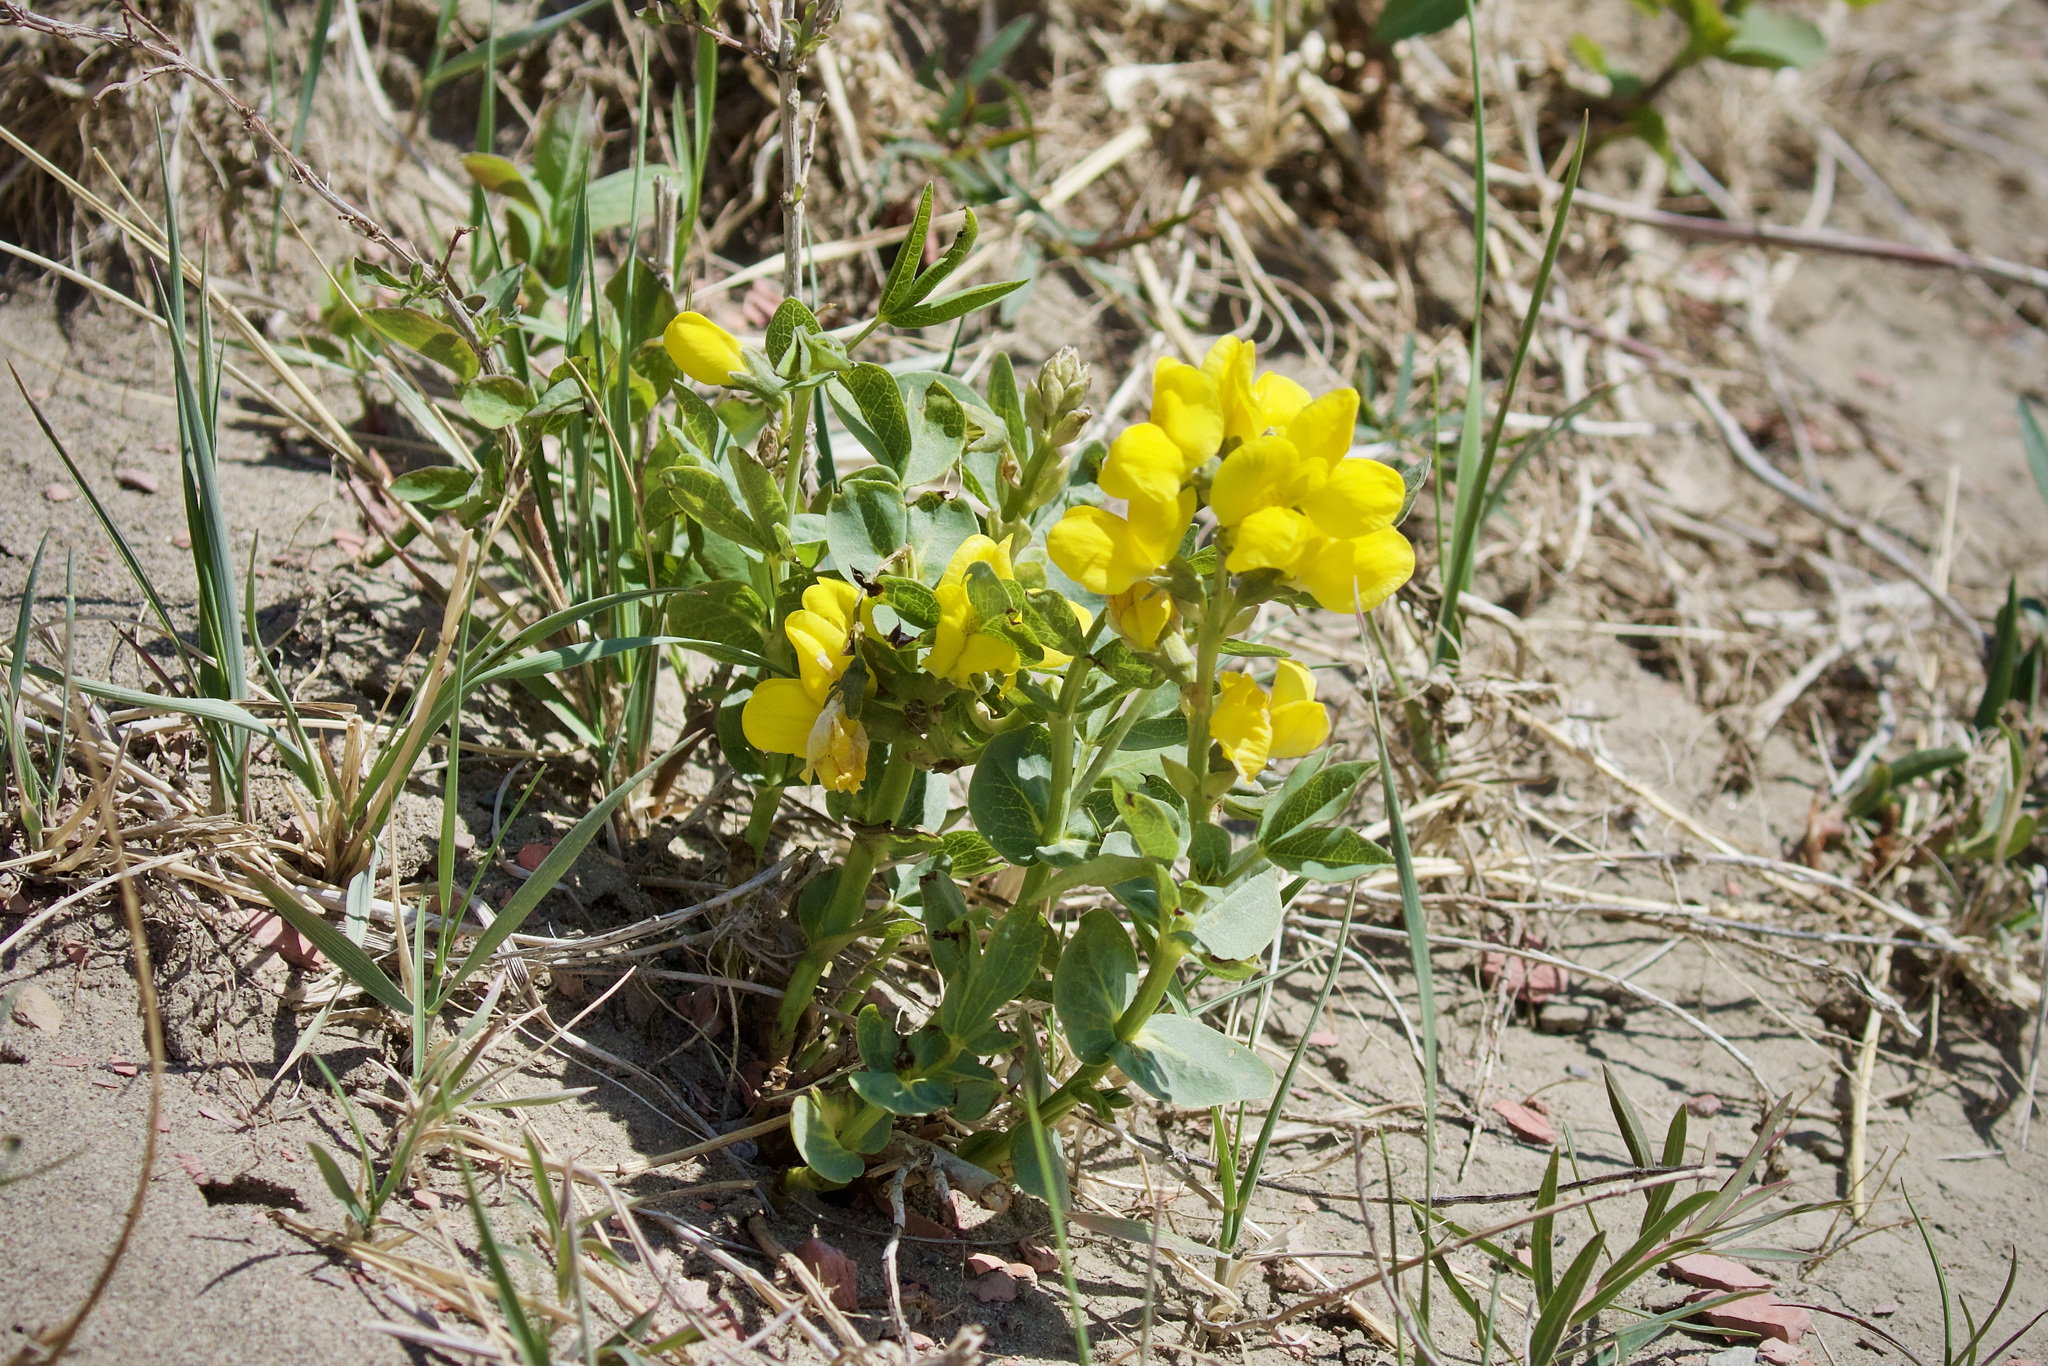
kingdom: Plantae
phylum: Tracheophyta
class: Magnoliopsida
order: Fabales
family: Fabaceae
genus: Thermopsis
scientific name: Thermopsis rhombifolia
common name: Circle-pod-pea
